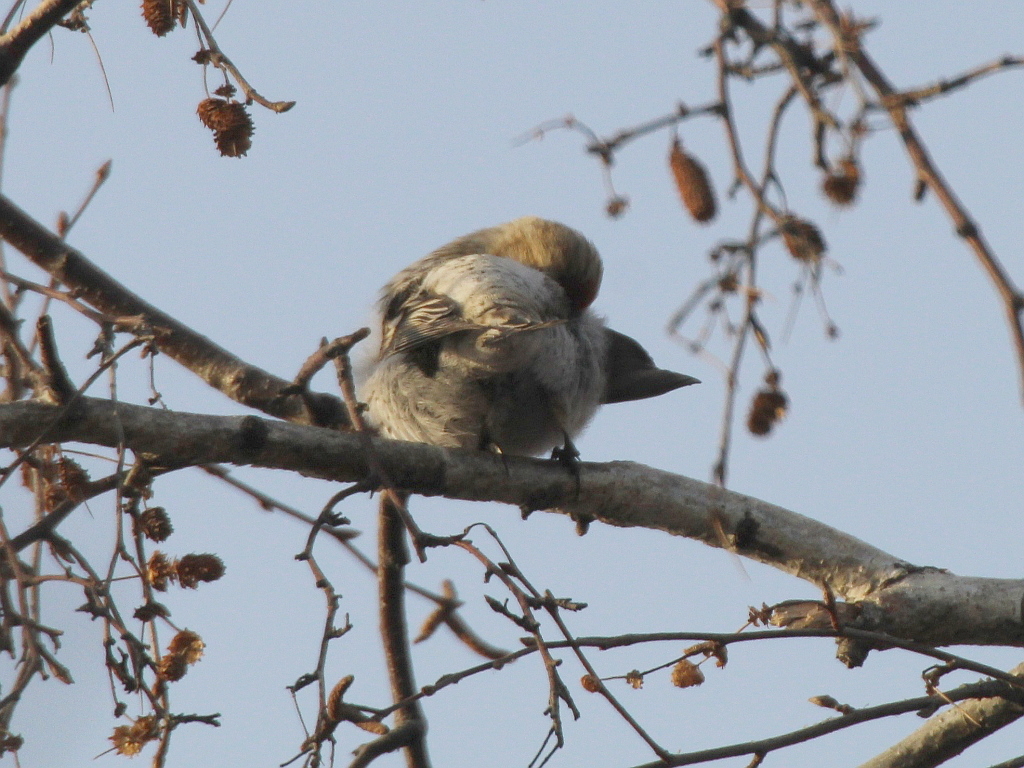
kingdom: Animalia
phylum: Chordata
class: Aves
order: Passeriformes
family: Fringillidae
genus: Acanthis
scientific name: Acanthis flammea
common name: Common redpoll
